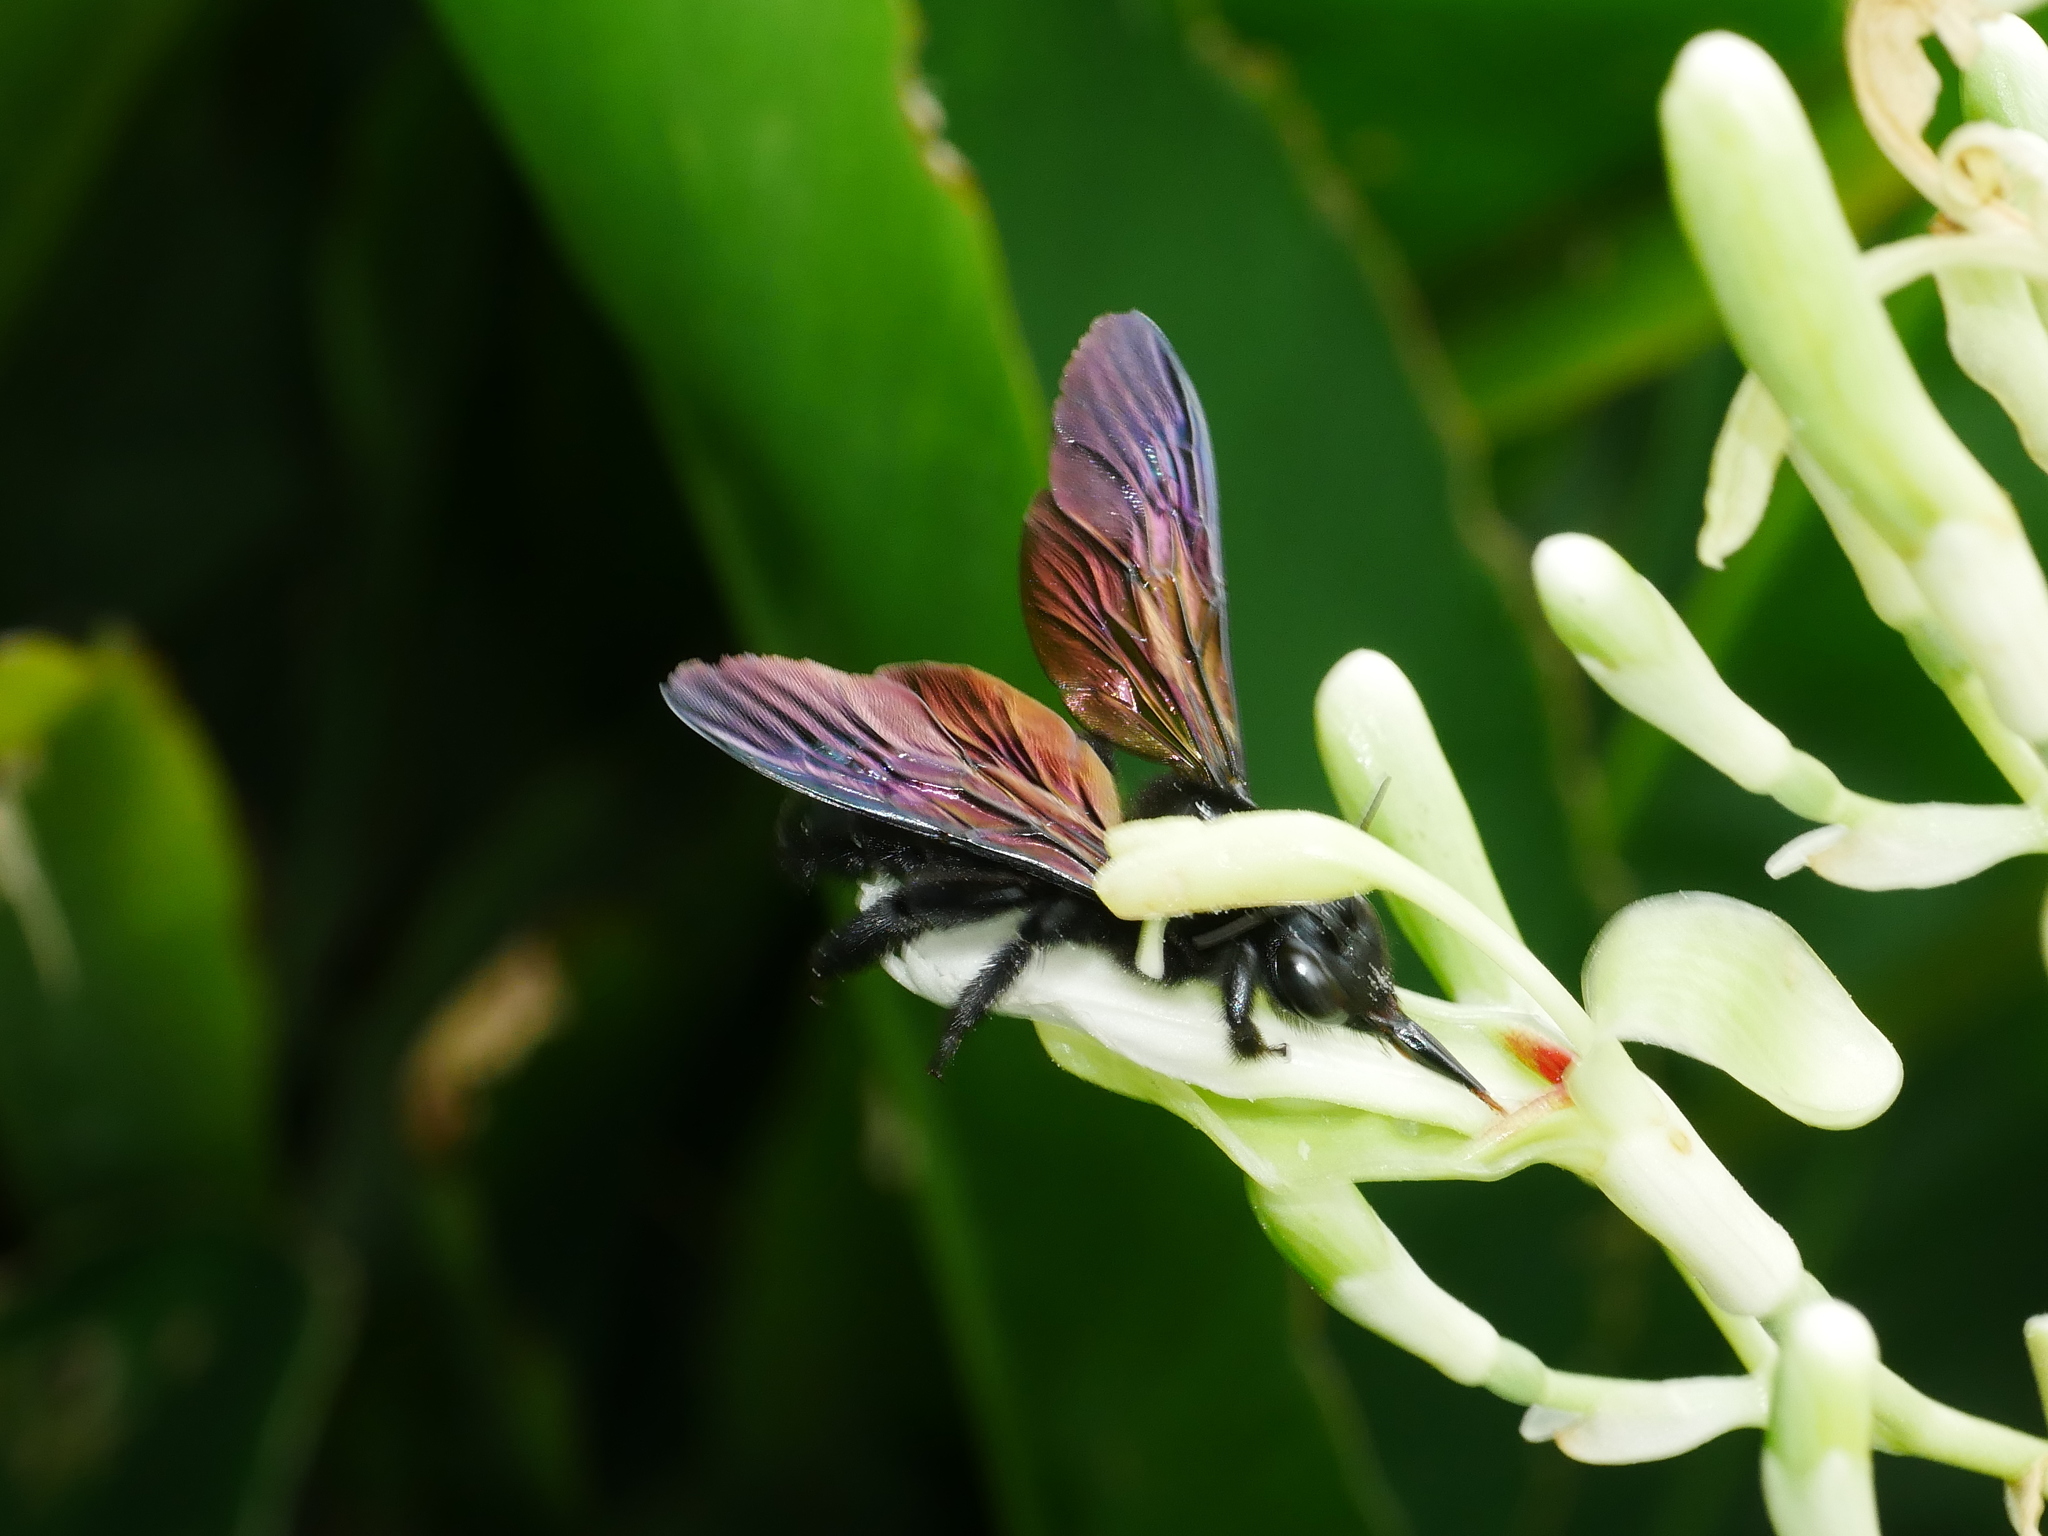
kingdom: Animalia
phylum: Arthropoda
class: Insecta
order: Hymenoptera
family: Apidae
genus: Xylocopa
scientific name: Xylocopa tranquebarorum
